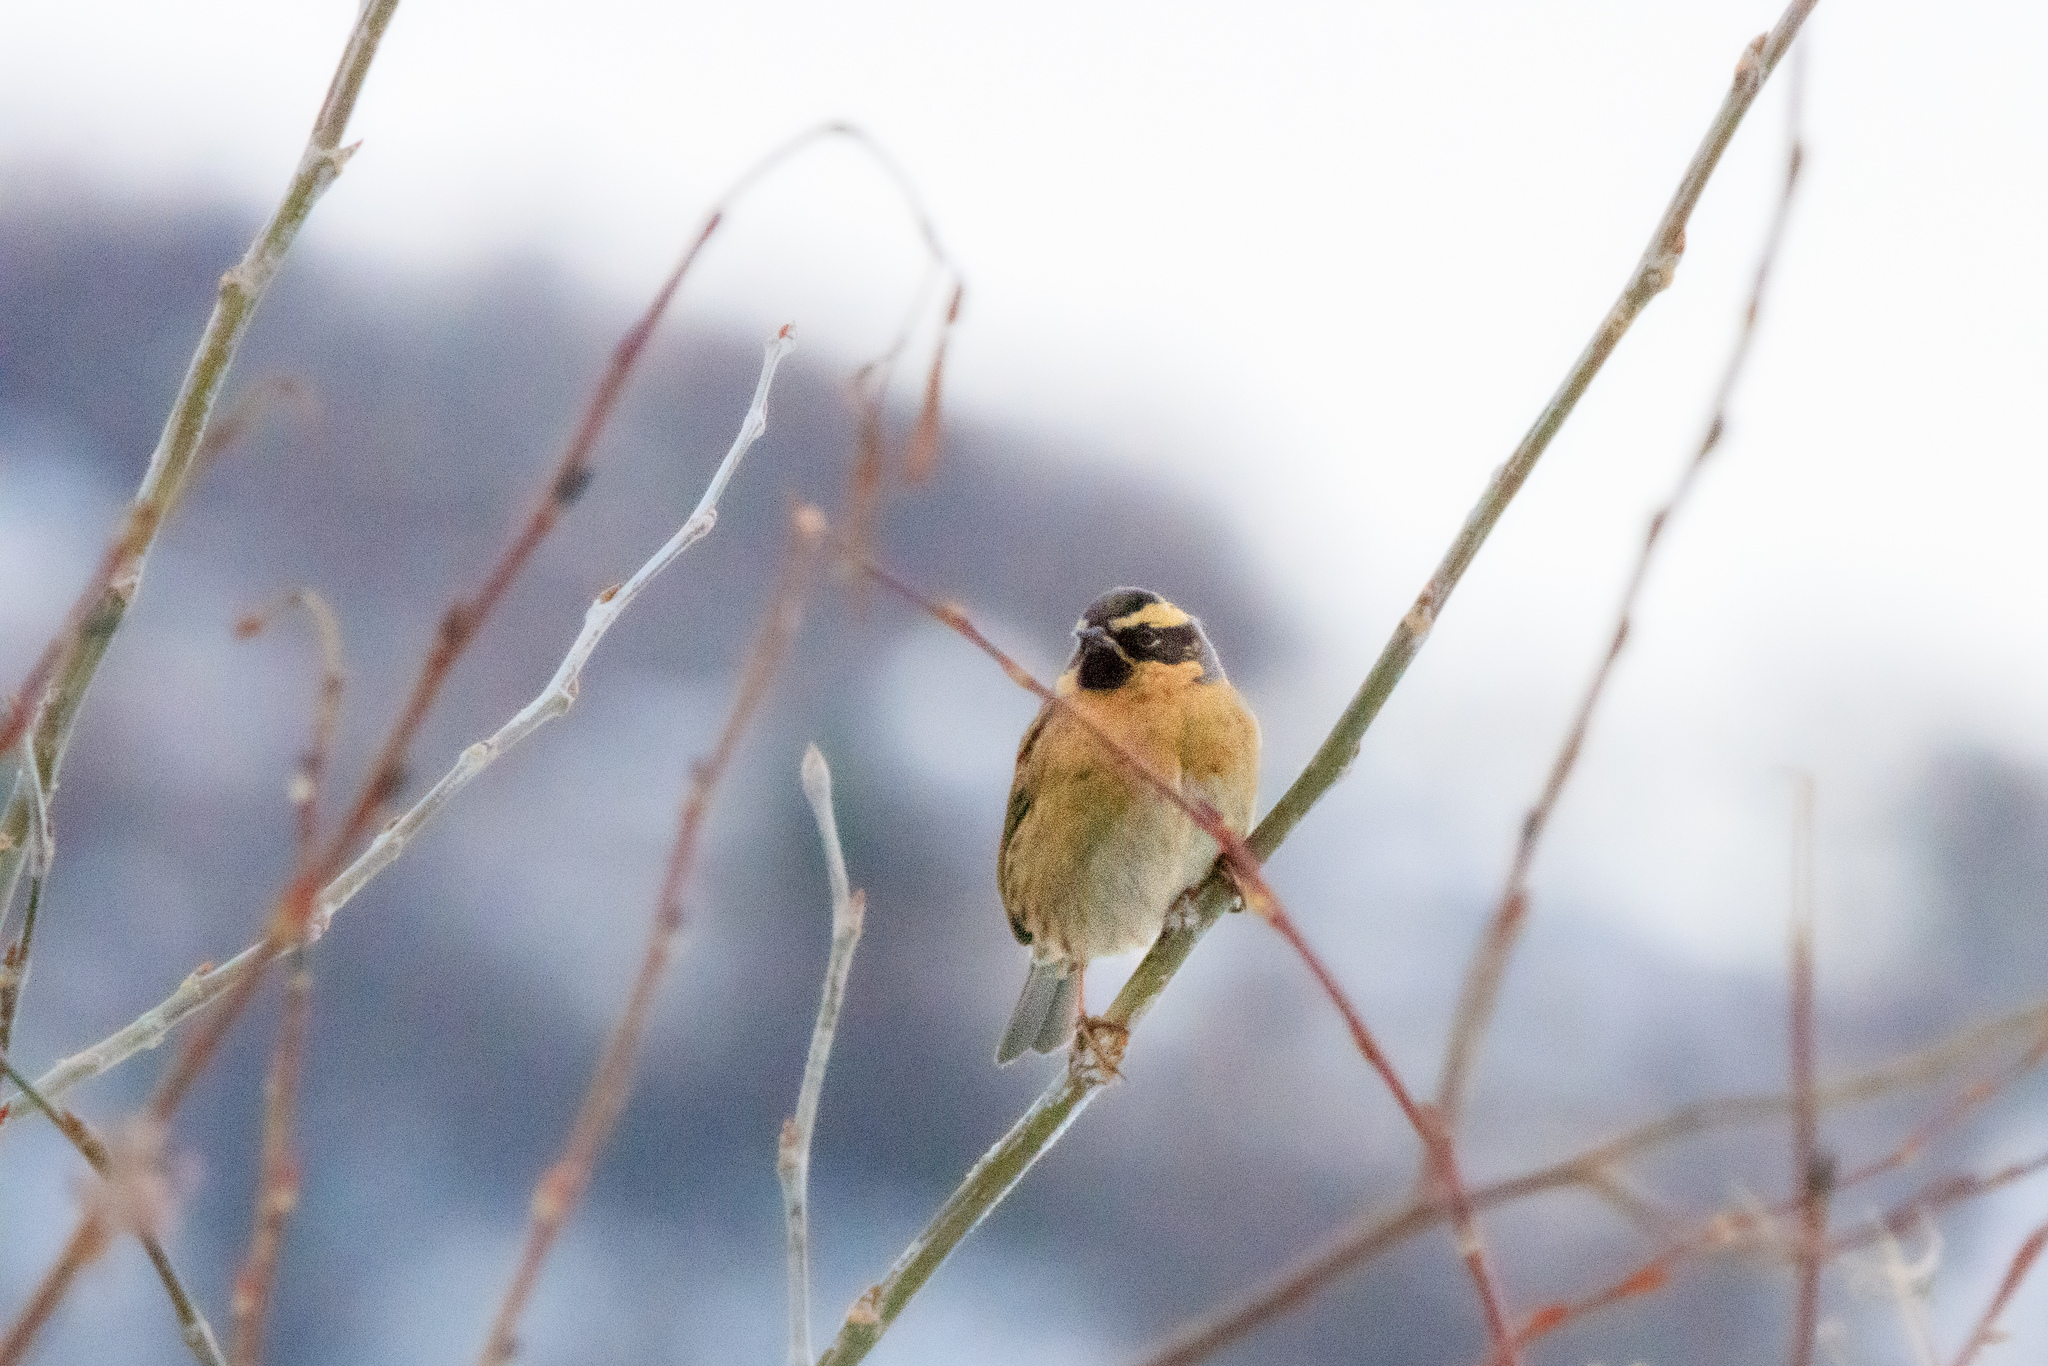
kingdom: Animalia
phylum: Chordata
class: Aves
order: Passeriformes
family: Prunellidae
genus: Prunella
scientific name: Prunella atrogularis
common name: Black-throated accentor
